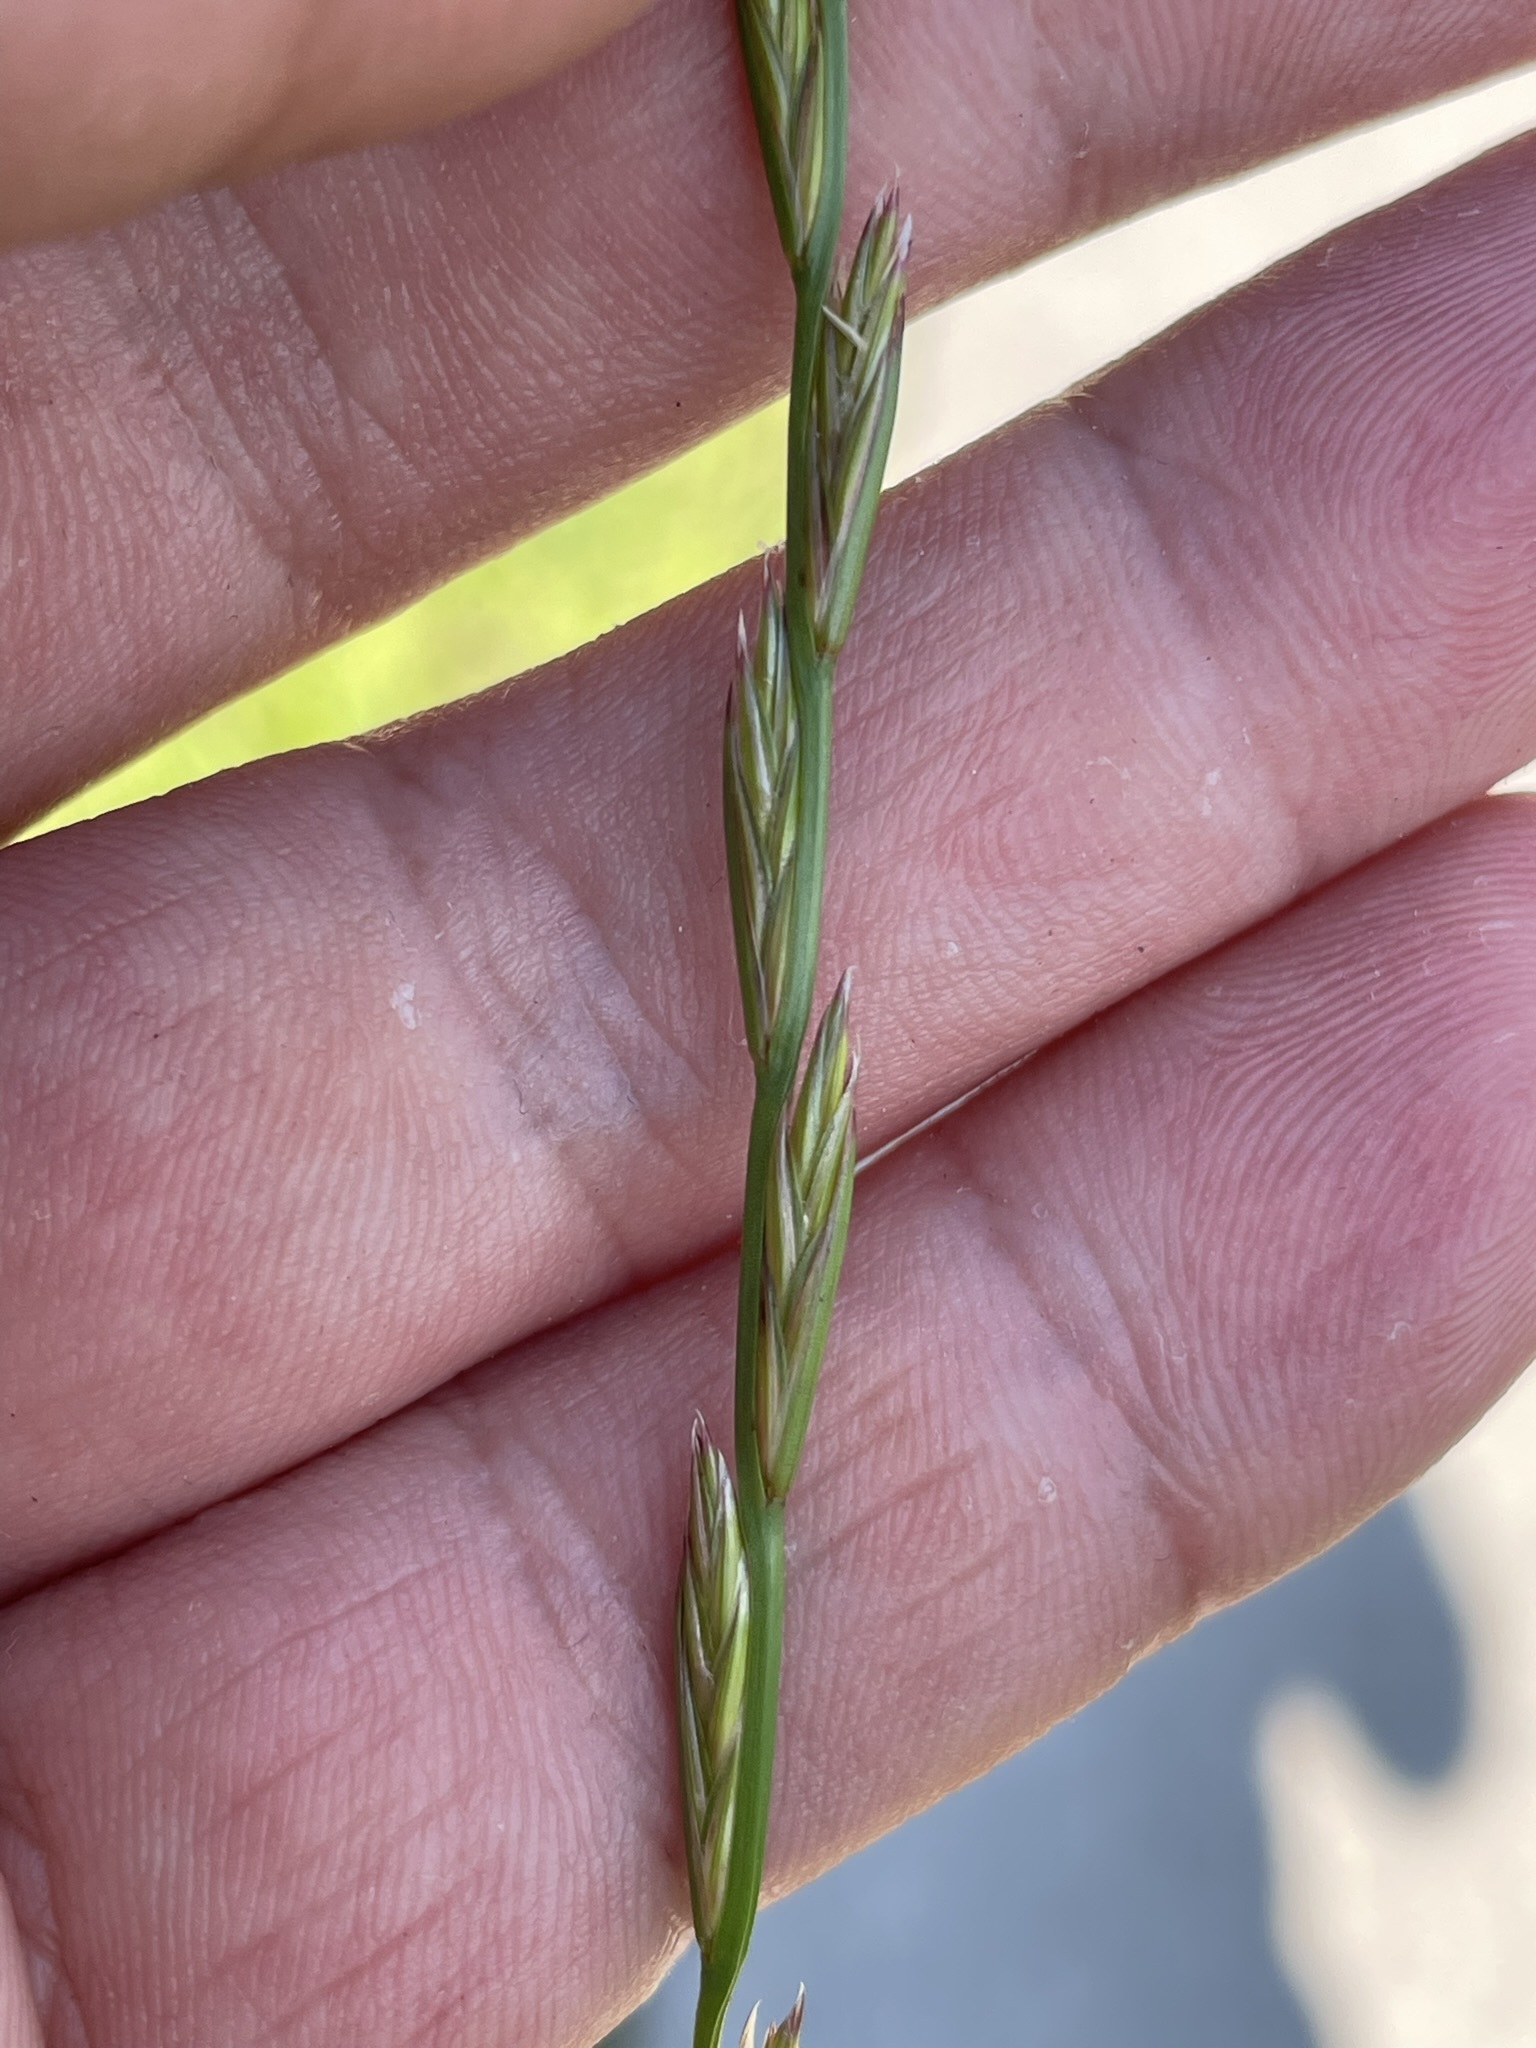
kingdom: Plantae
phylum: Tracheophyta
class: Liliopsida
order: Poales
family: Poaceae
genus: Lolium
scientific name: Lolium perenne
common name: Perennial ryegrass
